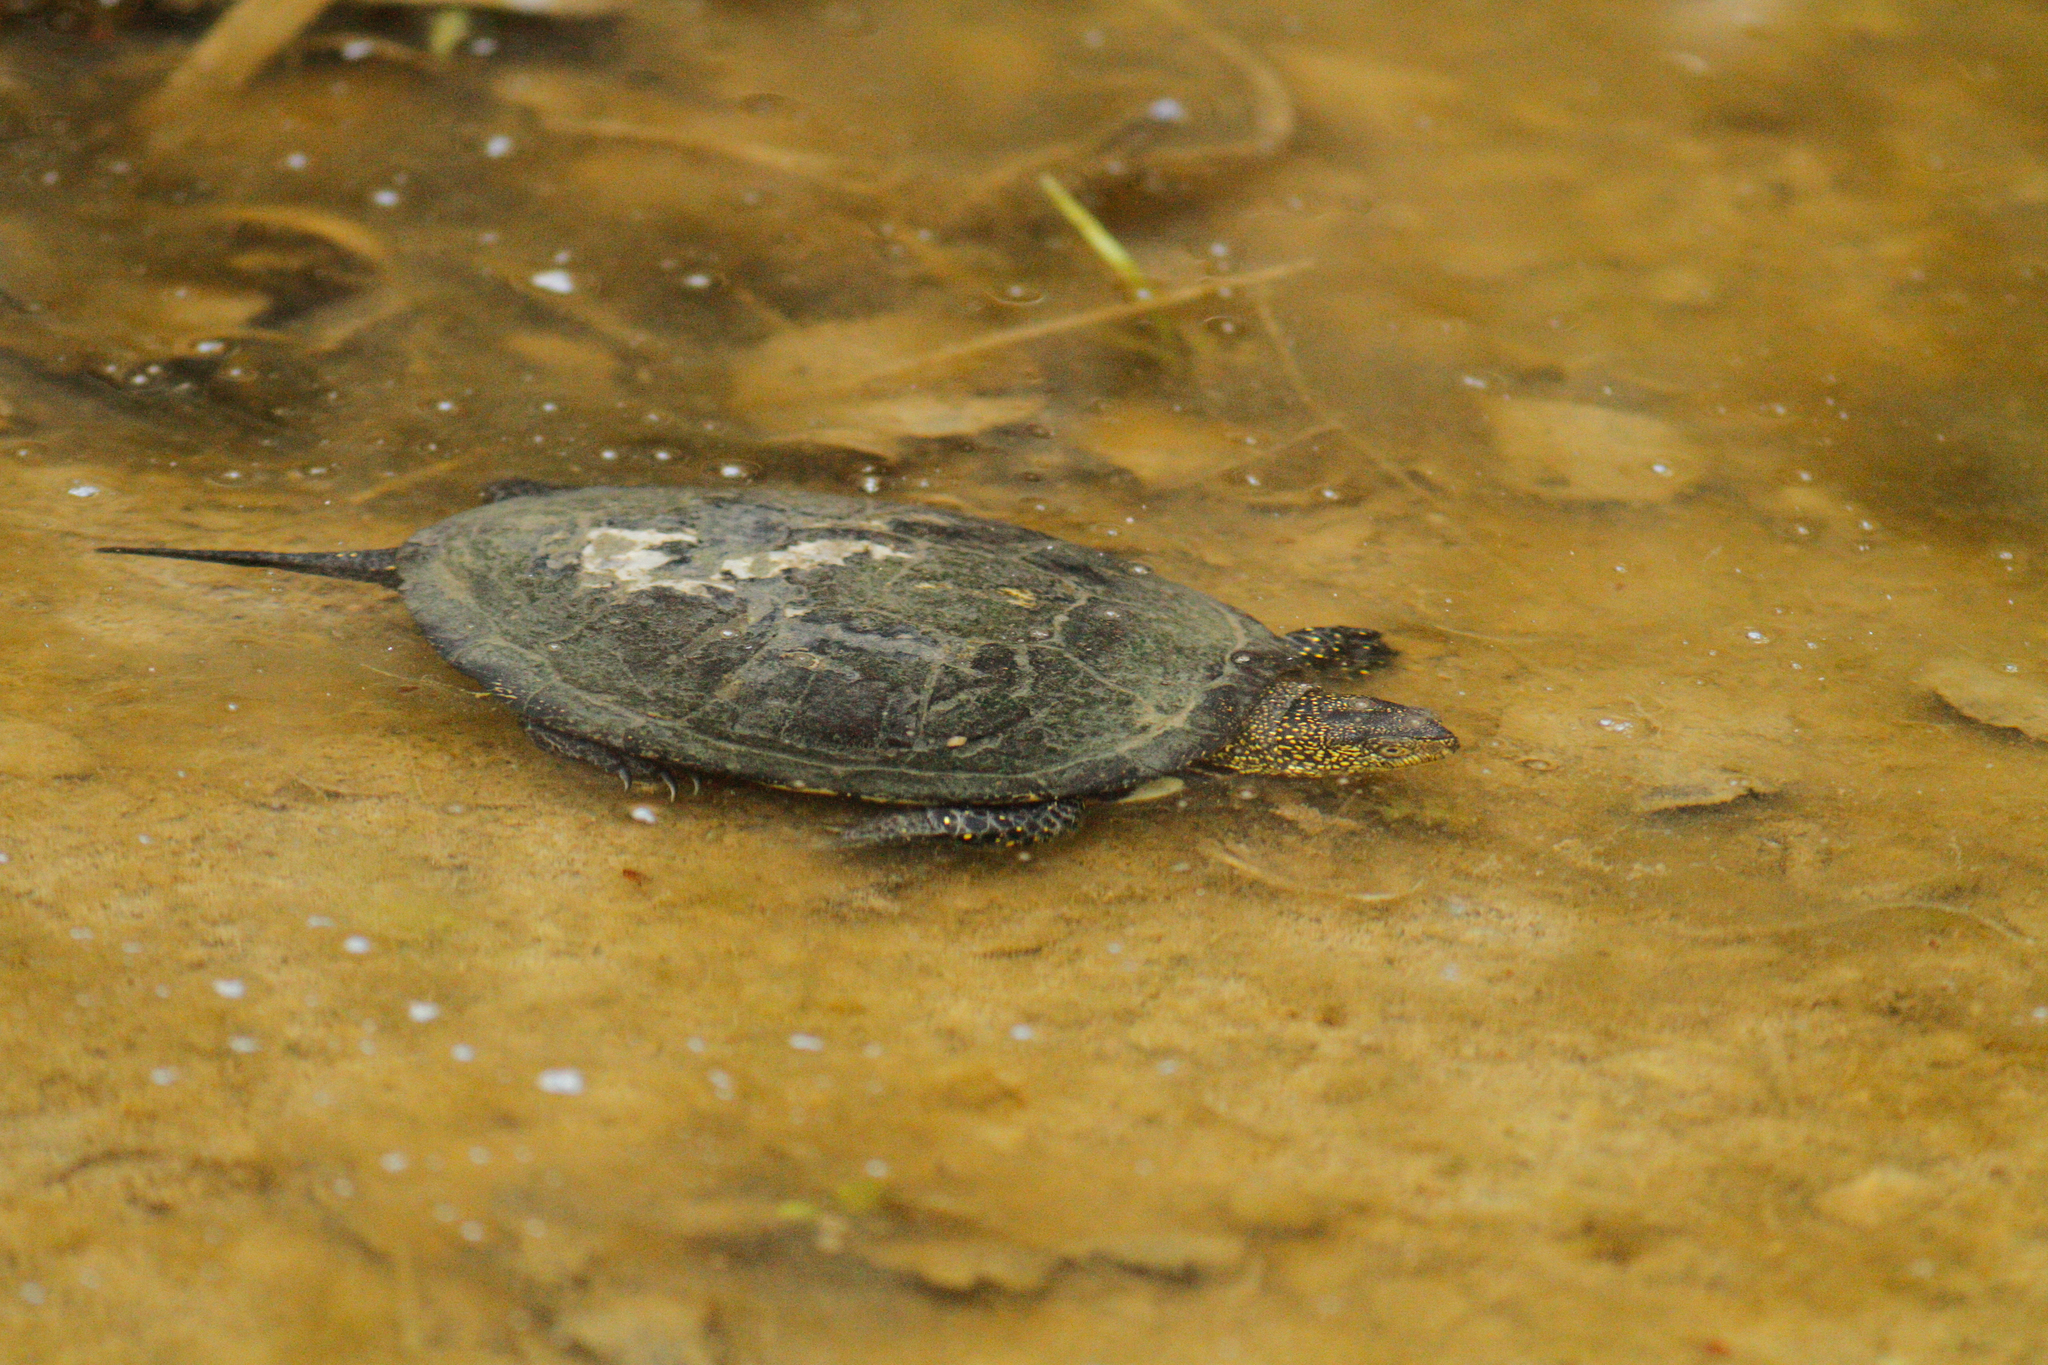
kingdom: Animalia
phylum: Chordata
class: Testudines
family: Emydidae
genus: Emys
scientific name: Emys orbicularis
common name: European pond turtle
